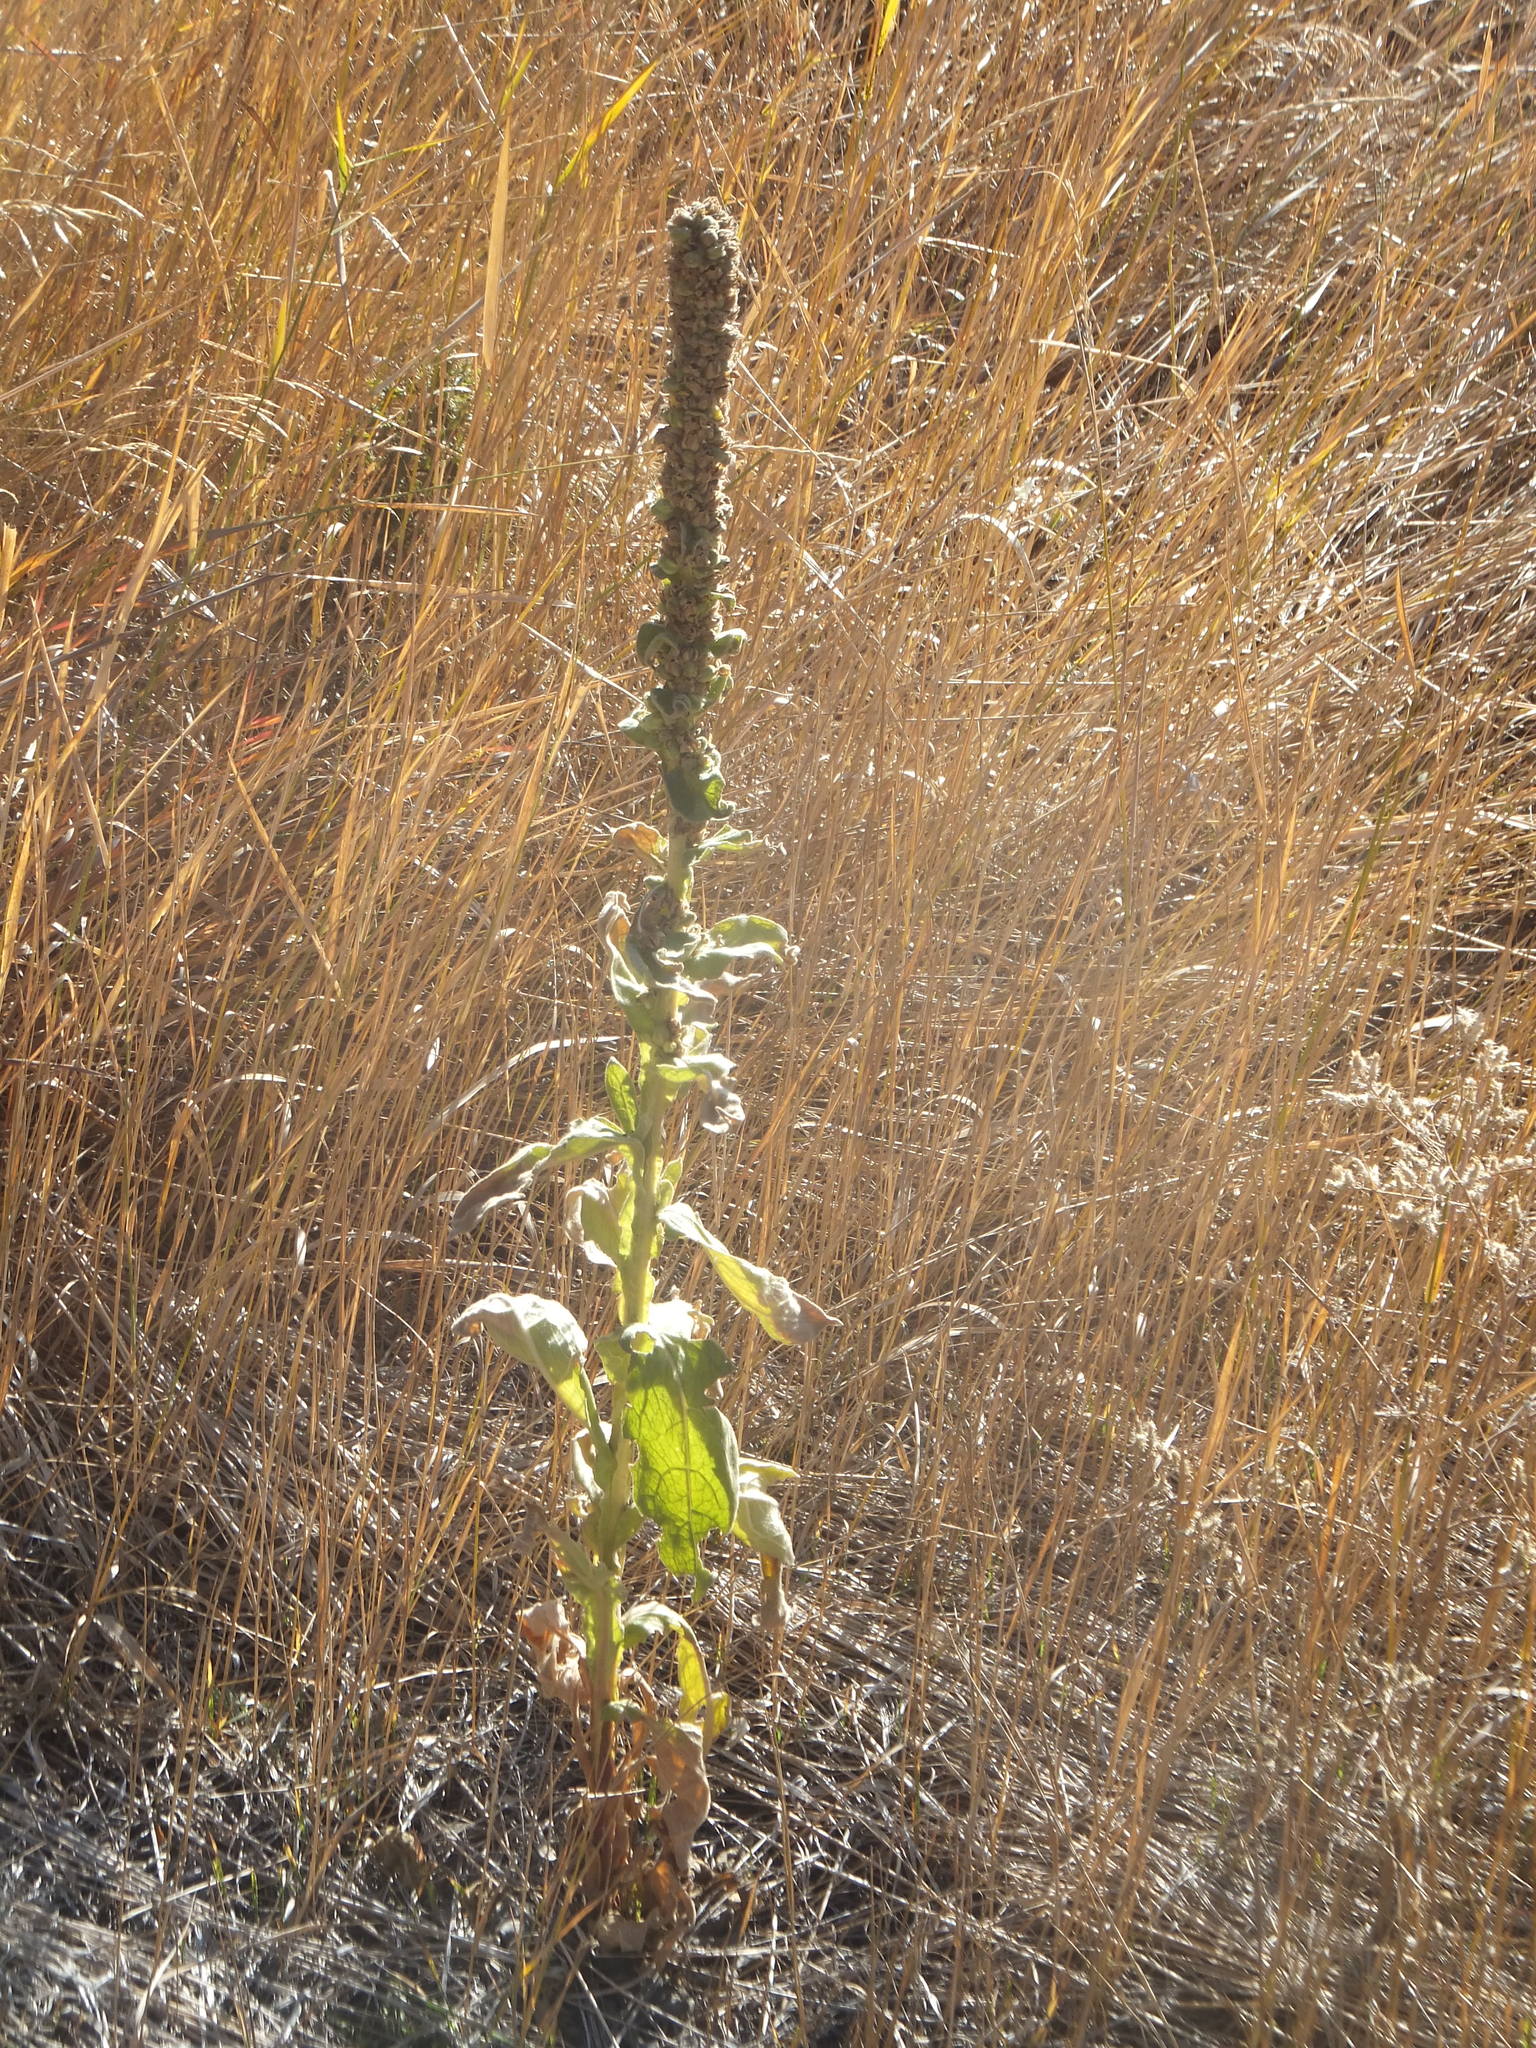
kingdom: Plantae
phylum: Tracheophyta
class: Magnoliopsida
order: Lamiales
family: Scrophulariaceae
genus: Verbascum
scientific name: Verbascum thapsus
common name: Common mullein
